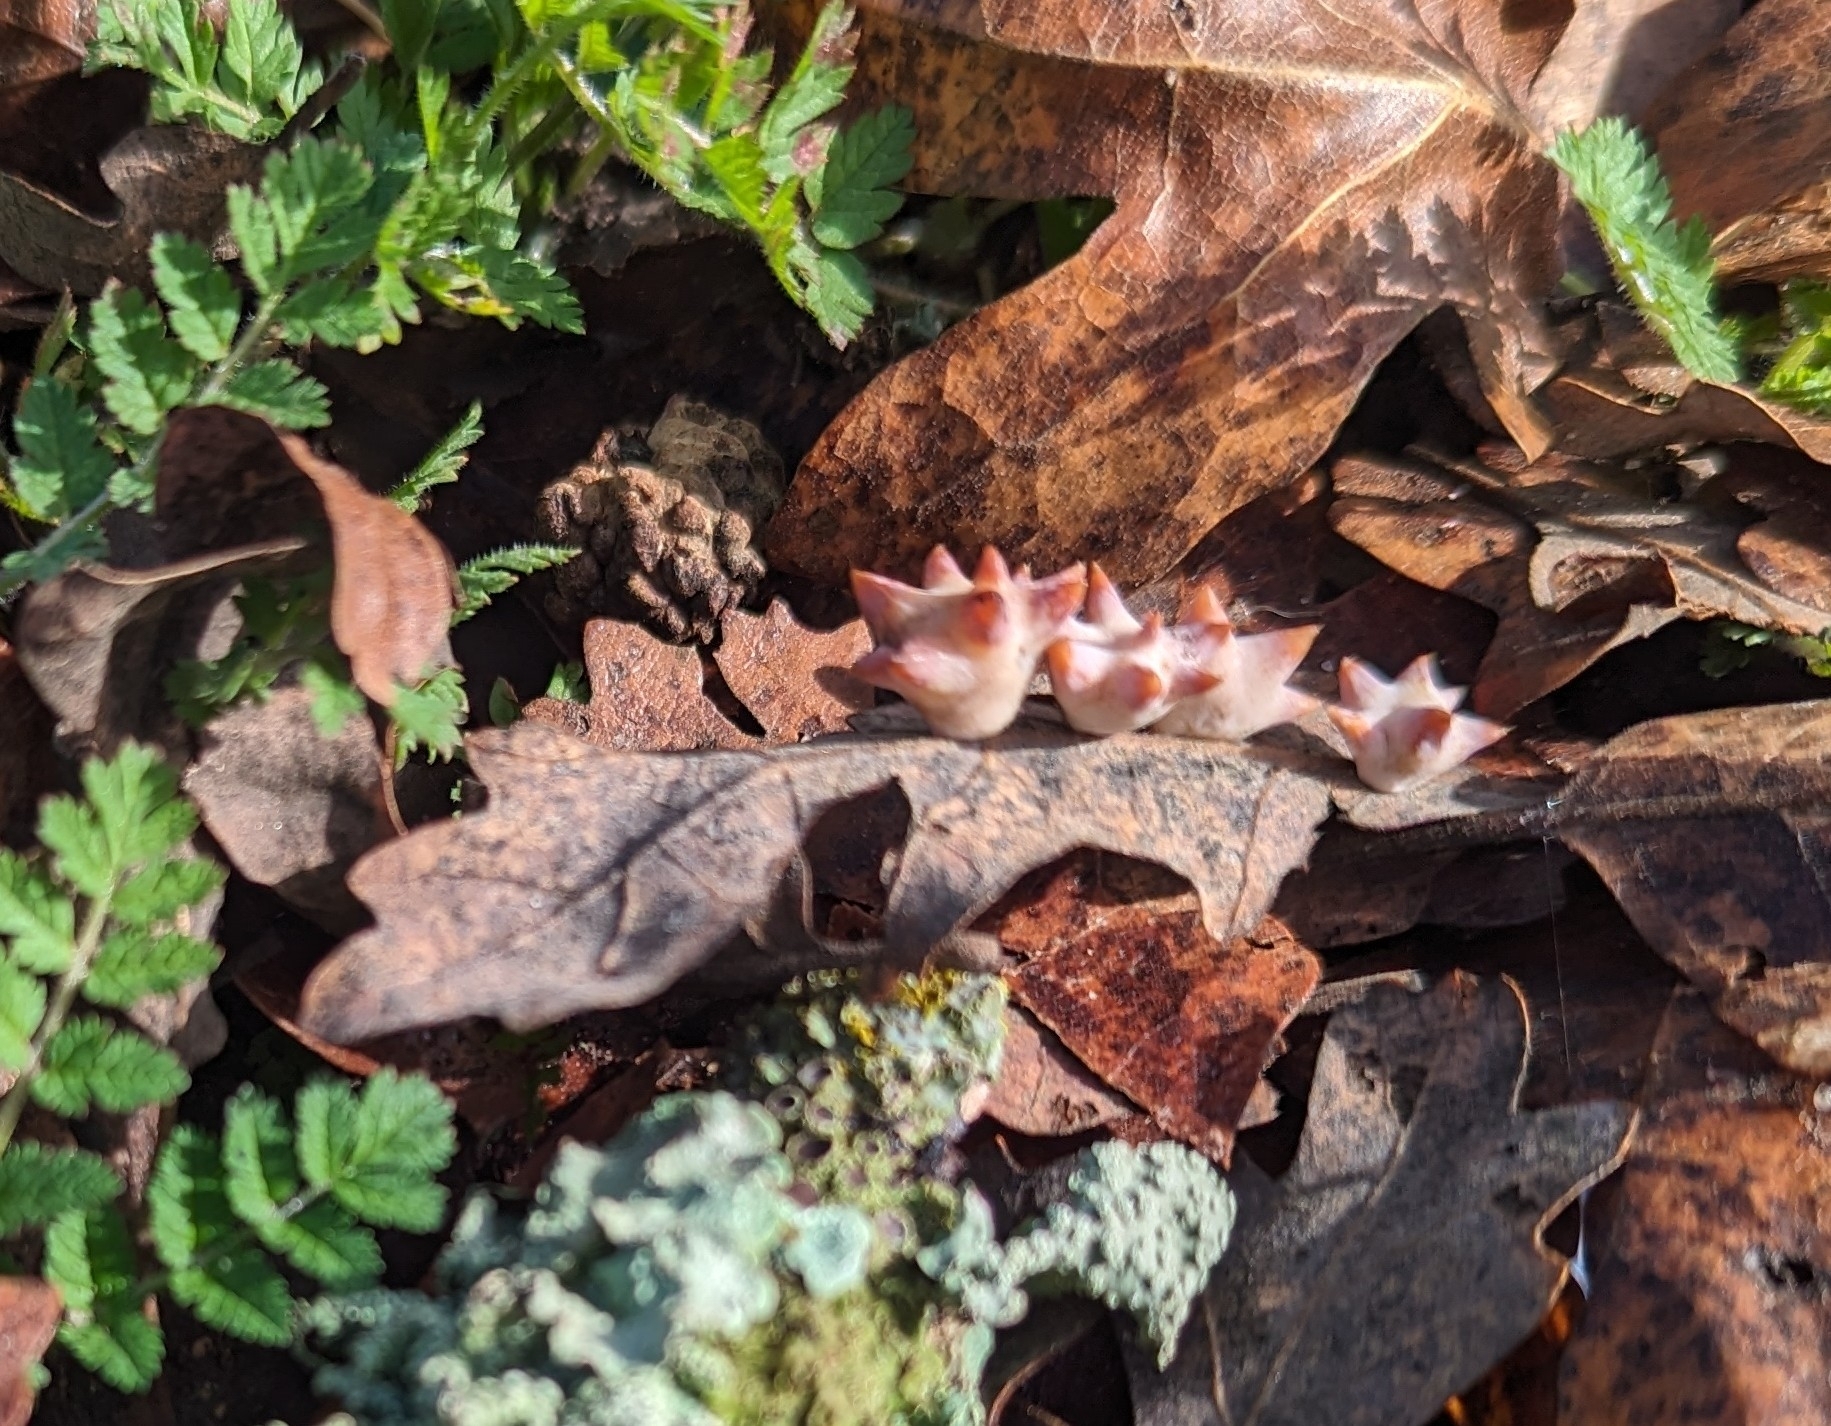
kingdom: Animalia
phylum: Arthropoda
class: Insecta
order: Hymenoptera
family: Cynipidae
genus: Cynips
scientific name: Cynips douglasi
